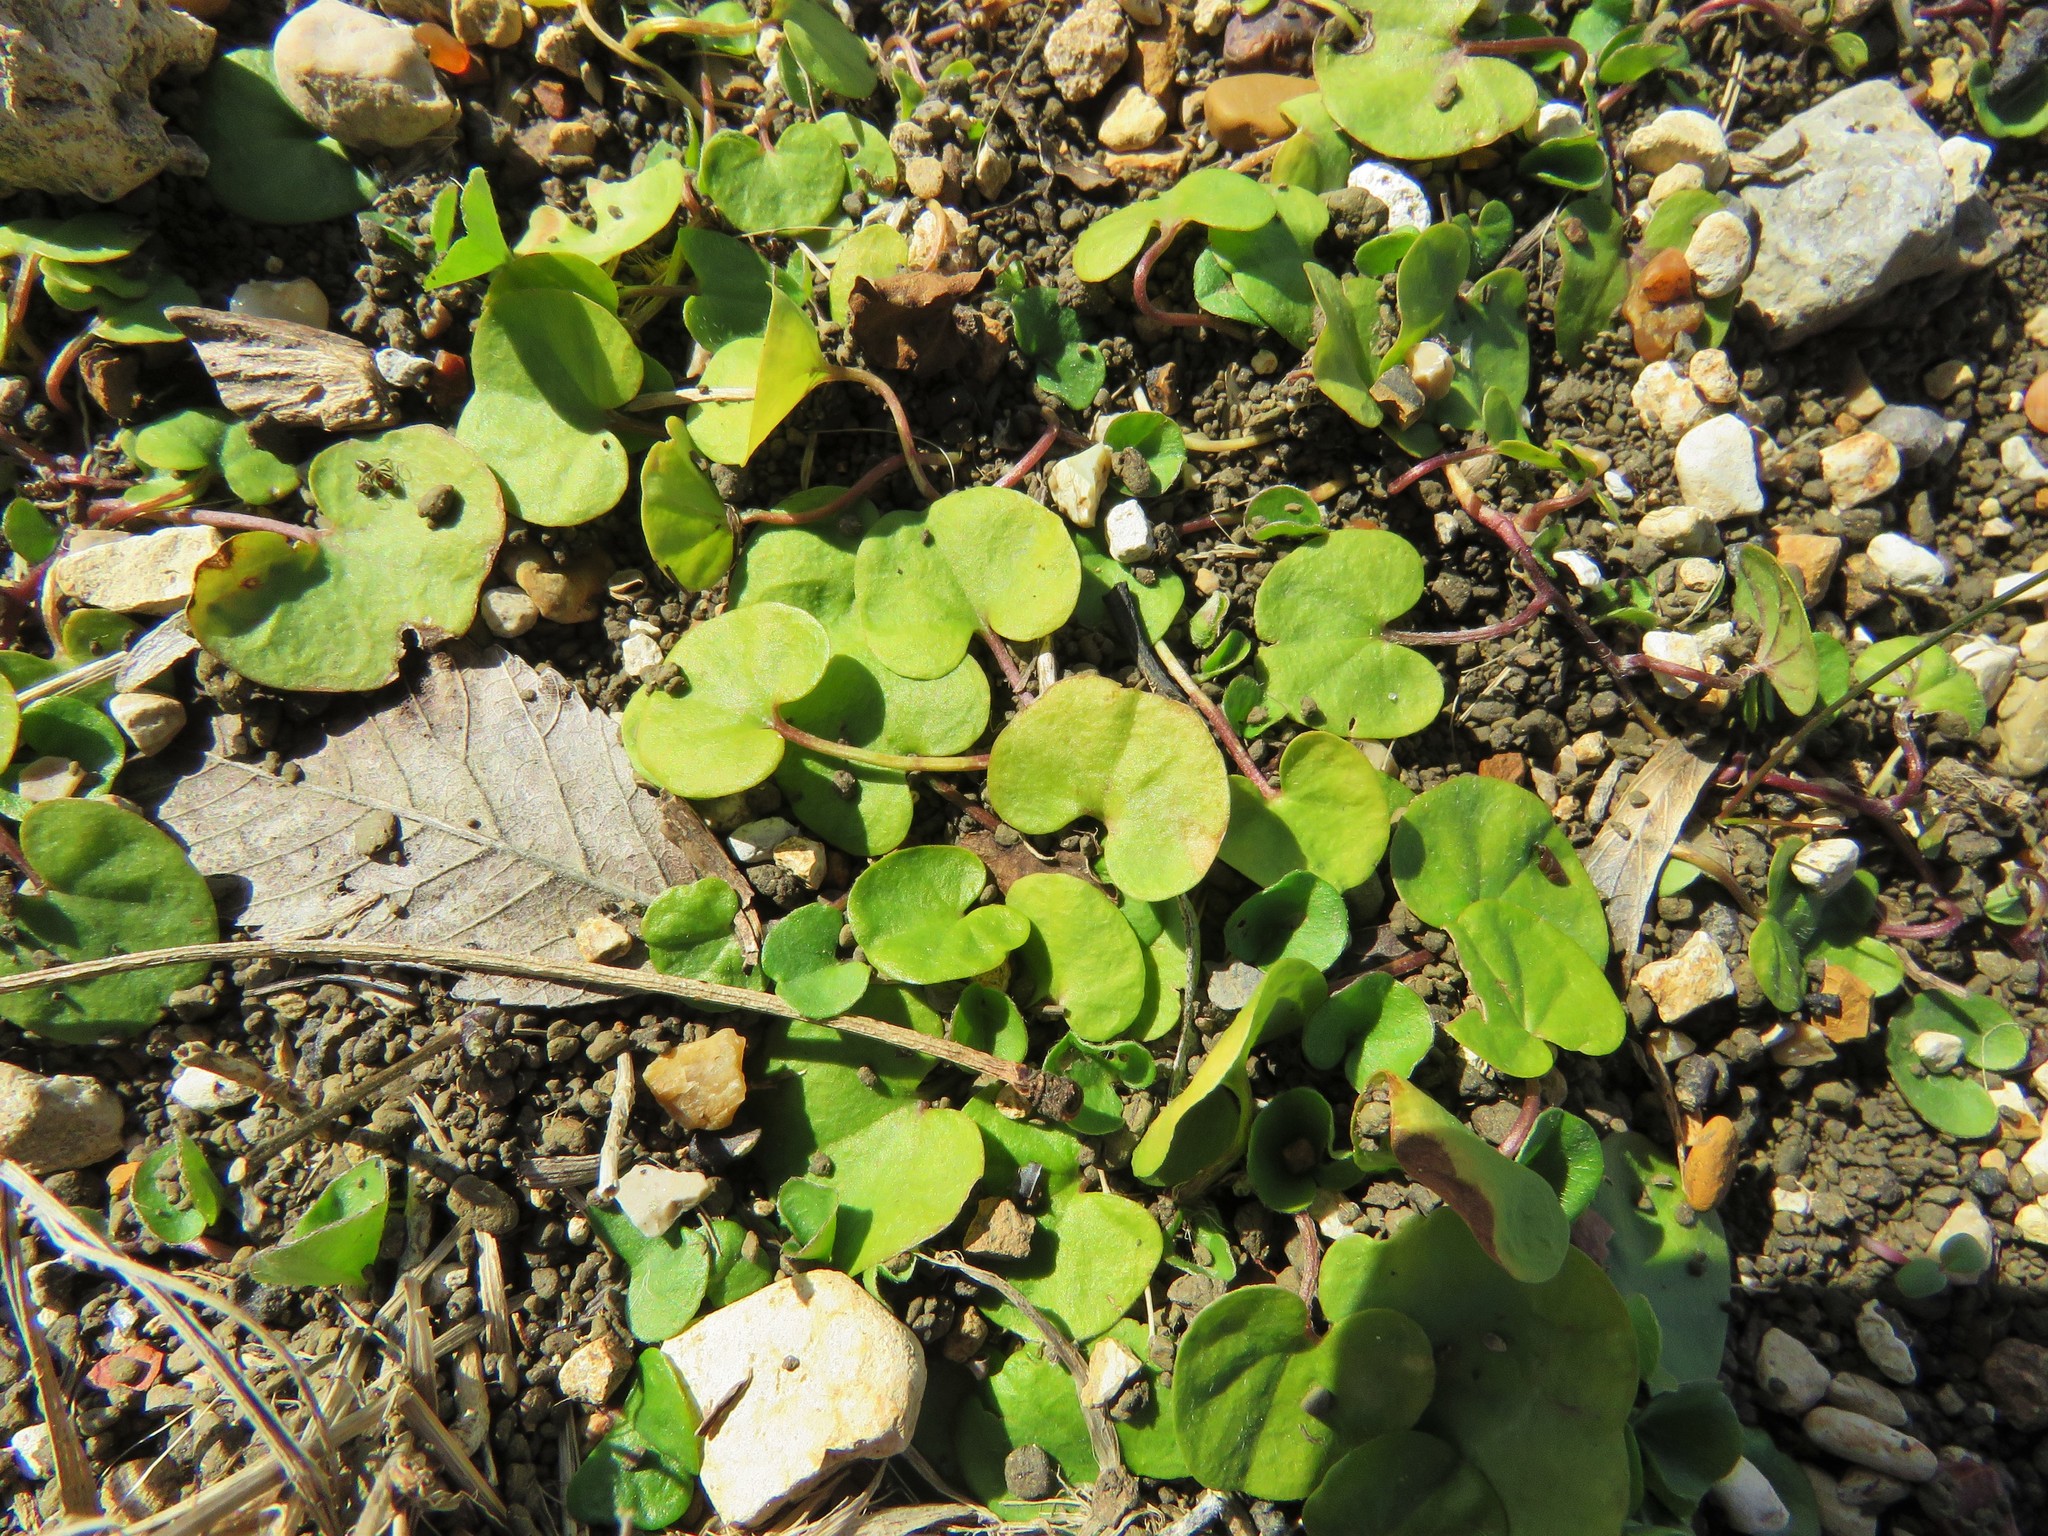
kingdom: Plantae
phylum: Tracheophyta
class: Magnoliopsida
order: Solanales
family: Convolvulaceae
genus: Dichondra
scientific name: Dichondra carolinensis
